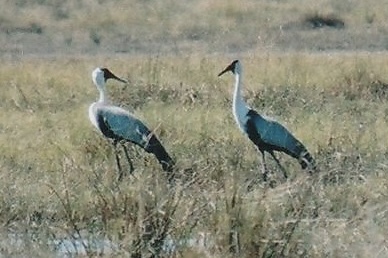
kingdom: Animalia
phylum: Chordata
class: Aves
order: Gruiformes
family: Gruidae
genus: Bugeranus
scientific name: Bugeranus carunculatus
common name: Wattled crane
